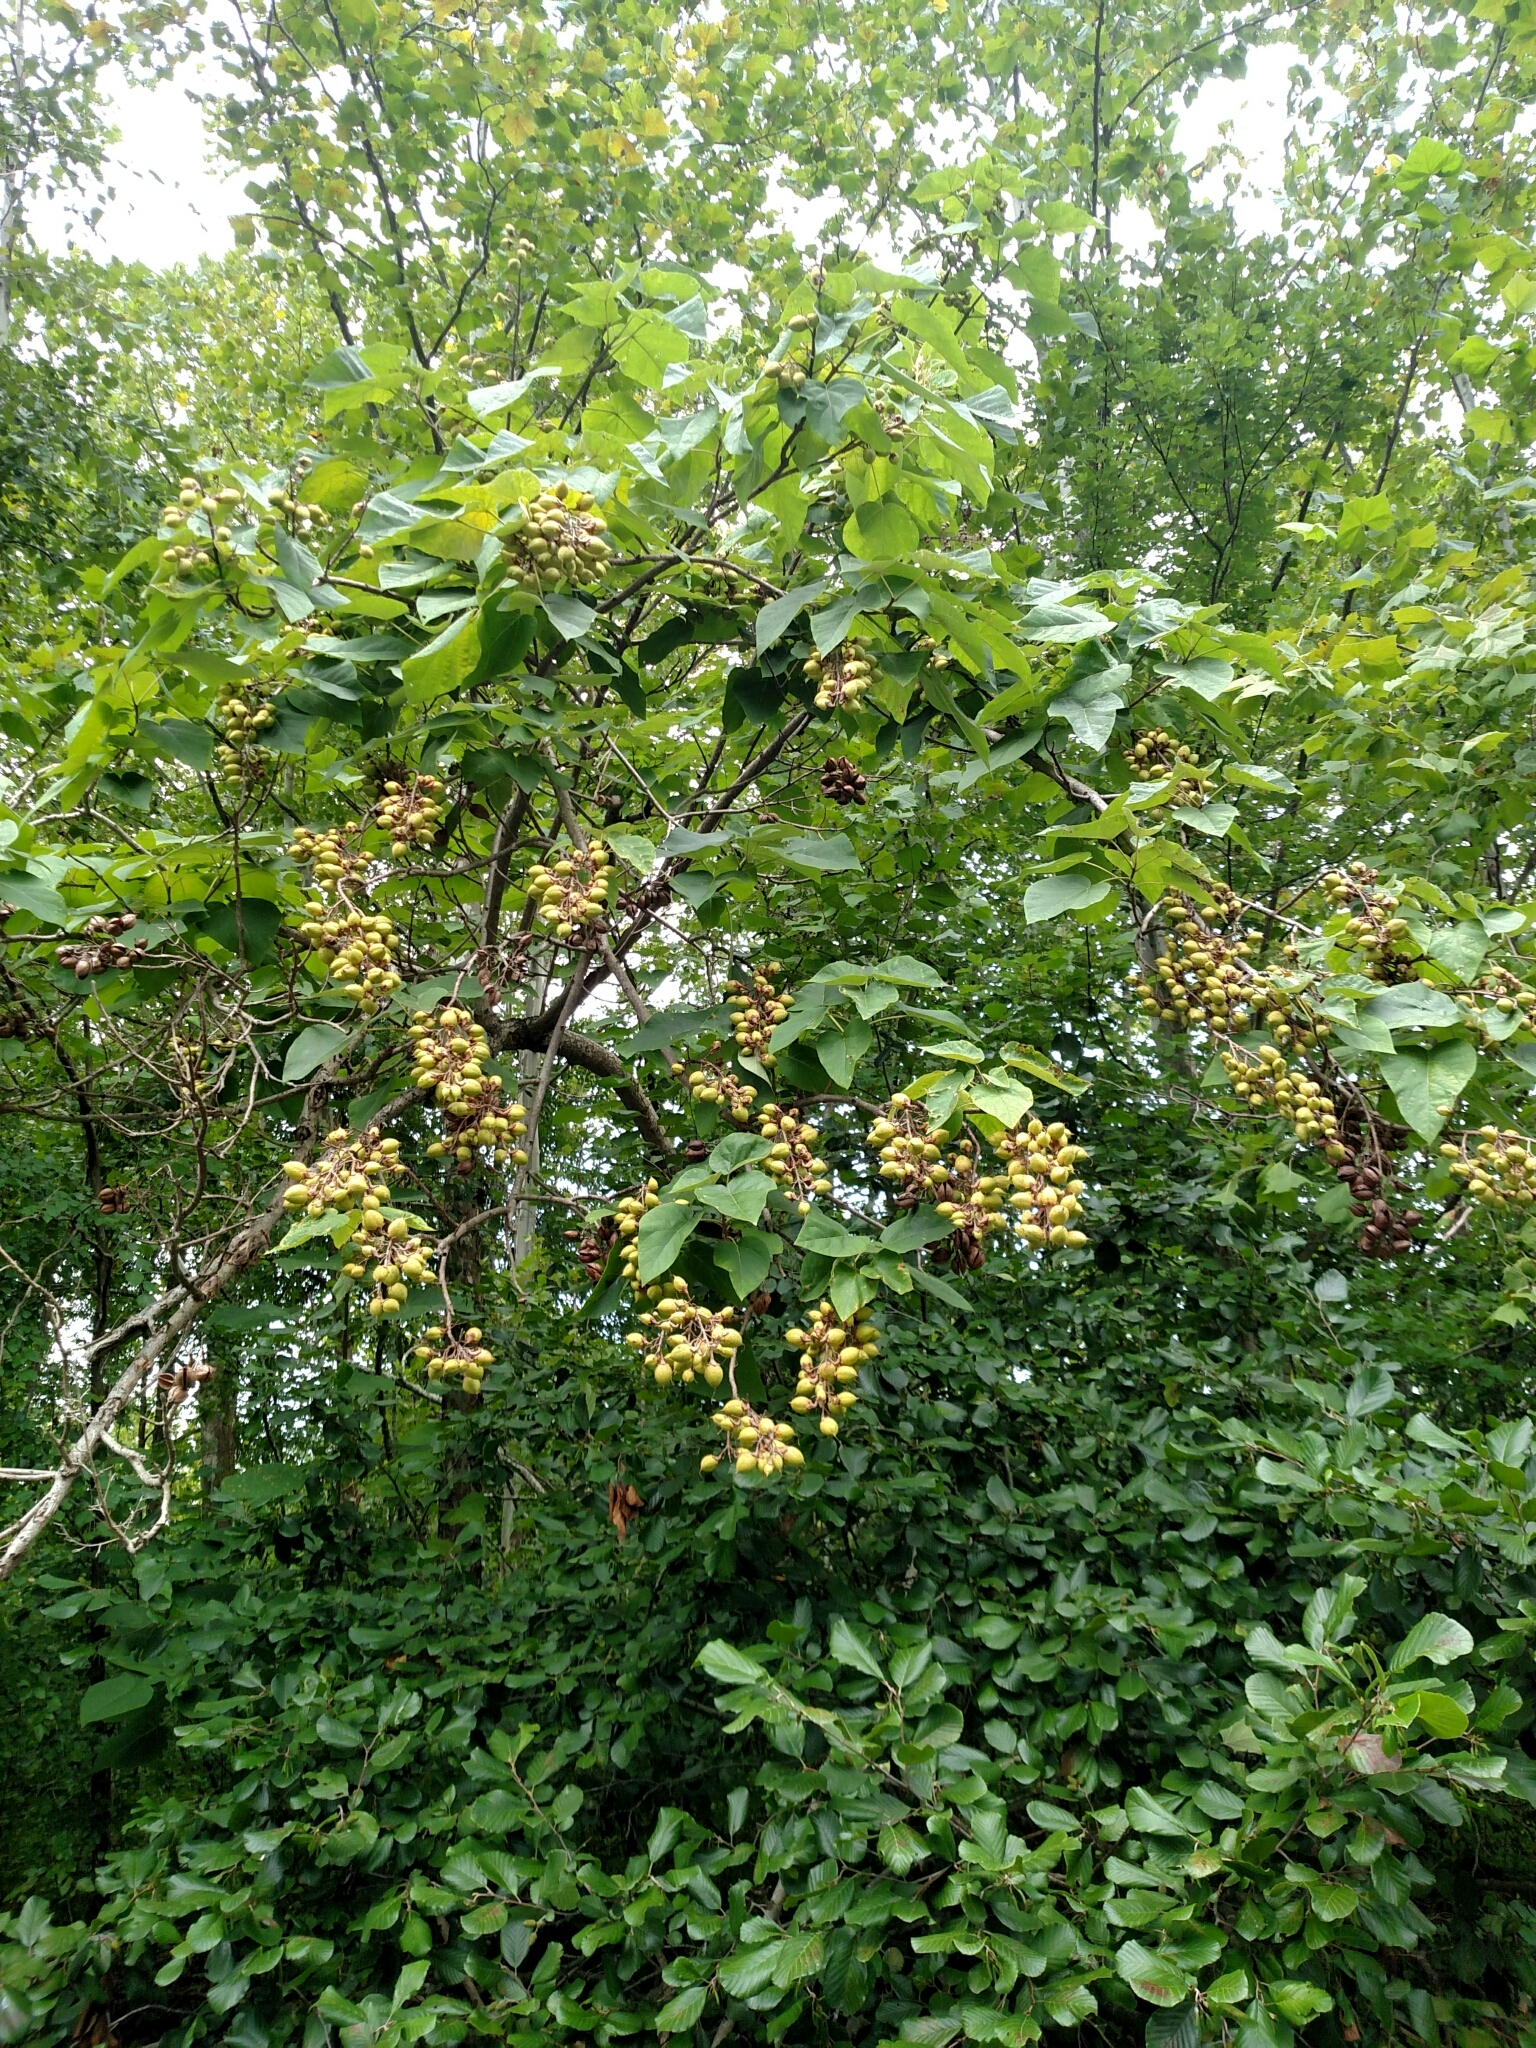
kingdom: Plantae
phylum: Tracheophyta
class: Magnoliopsida
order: Lamiales
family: Paulowniaceae
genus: Paulownia
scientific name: Paulownia tomentosa
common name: Foxglove-tree
